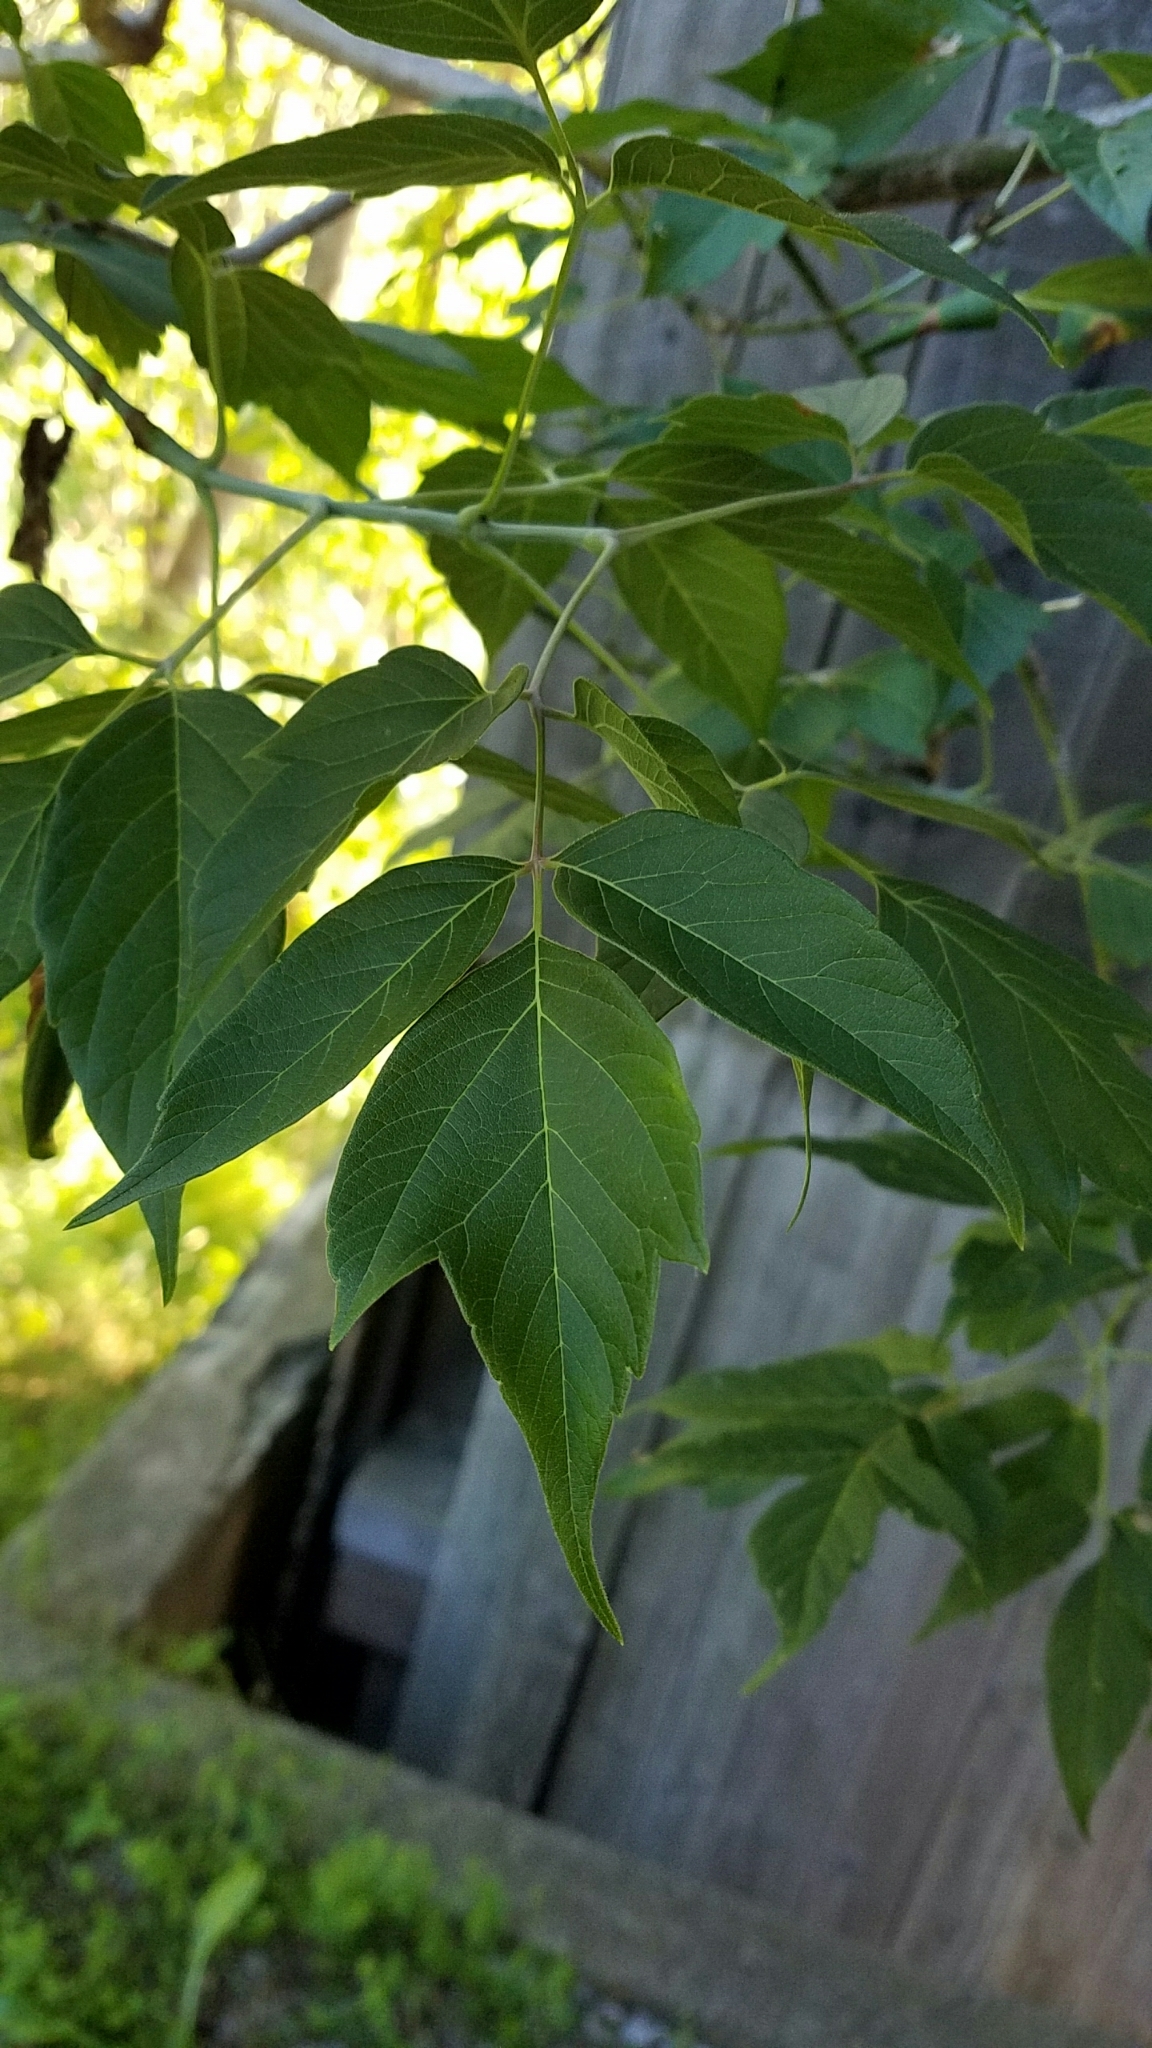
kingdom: Plantae
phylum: Tracheophyta
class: Magnoliopsida
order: Sapindales
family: Sapindaceae
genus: Acer
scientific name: Acer negundo
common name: Ashleaf maple
